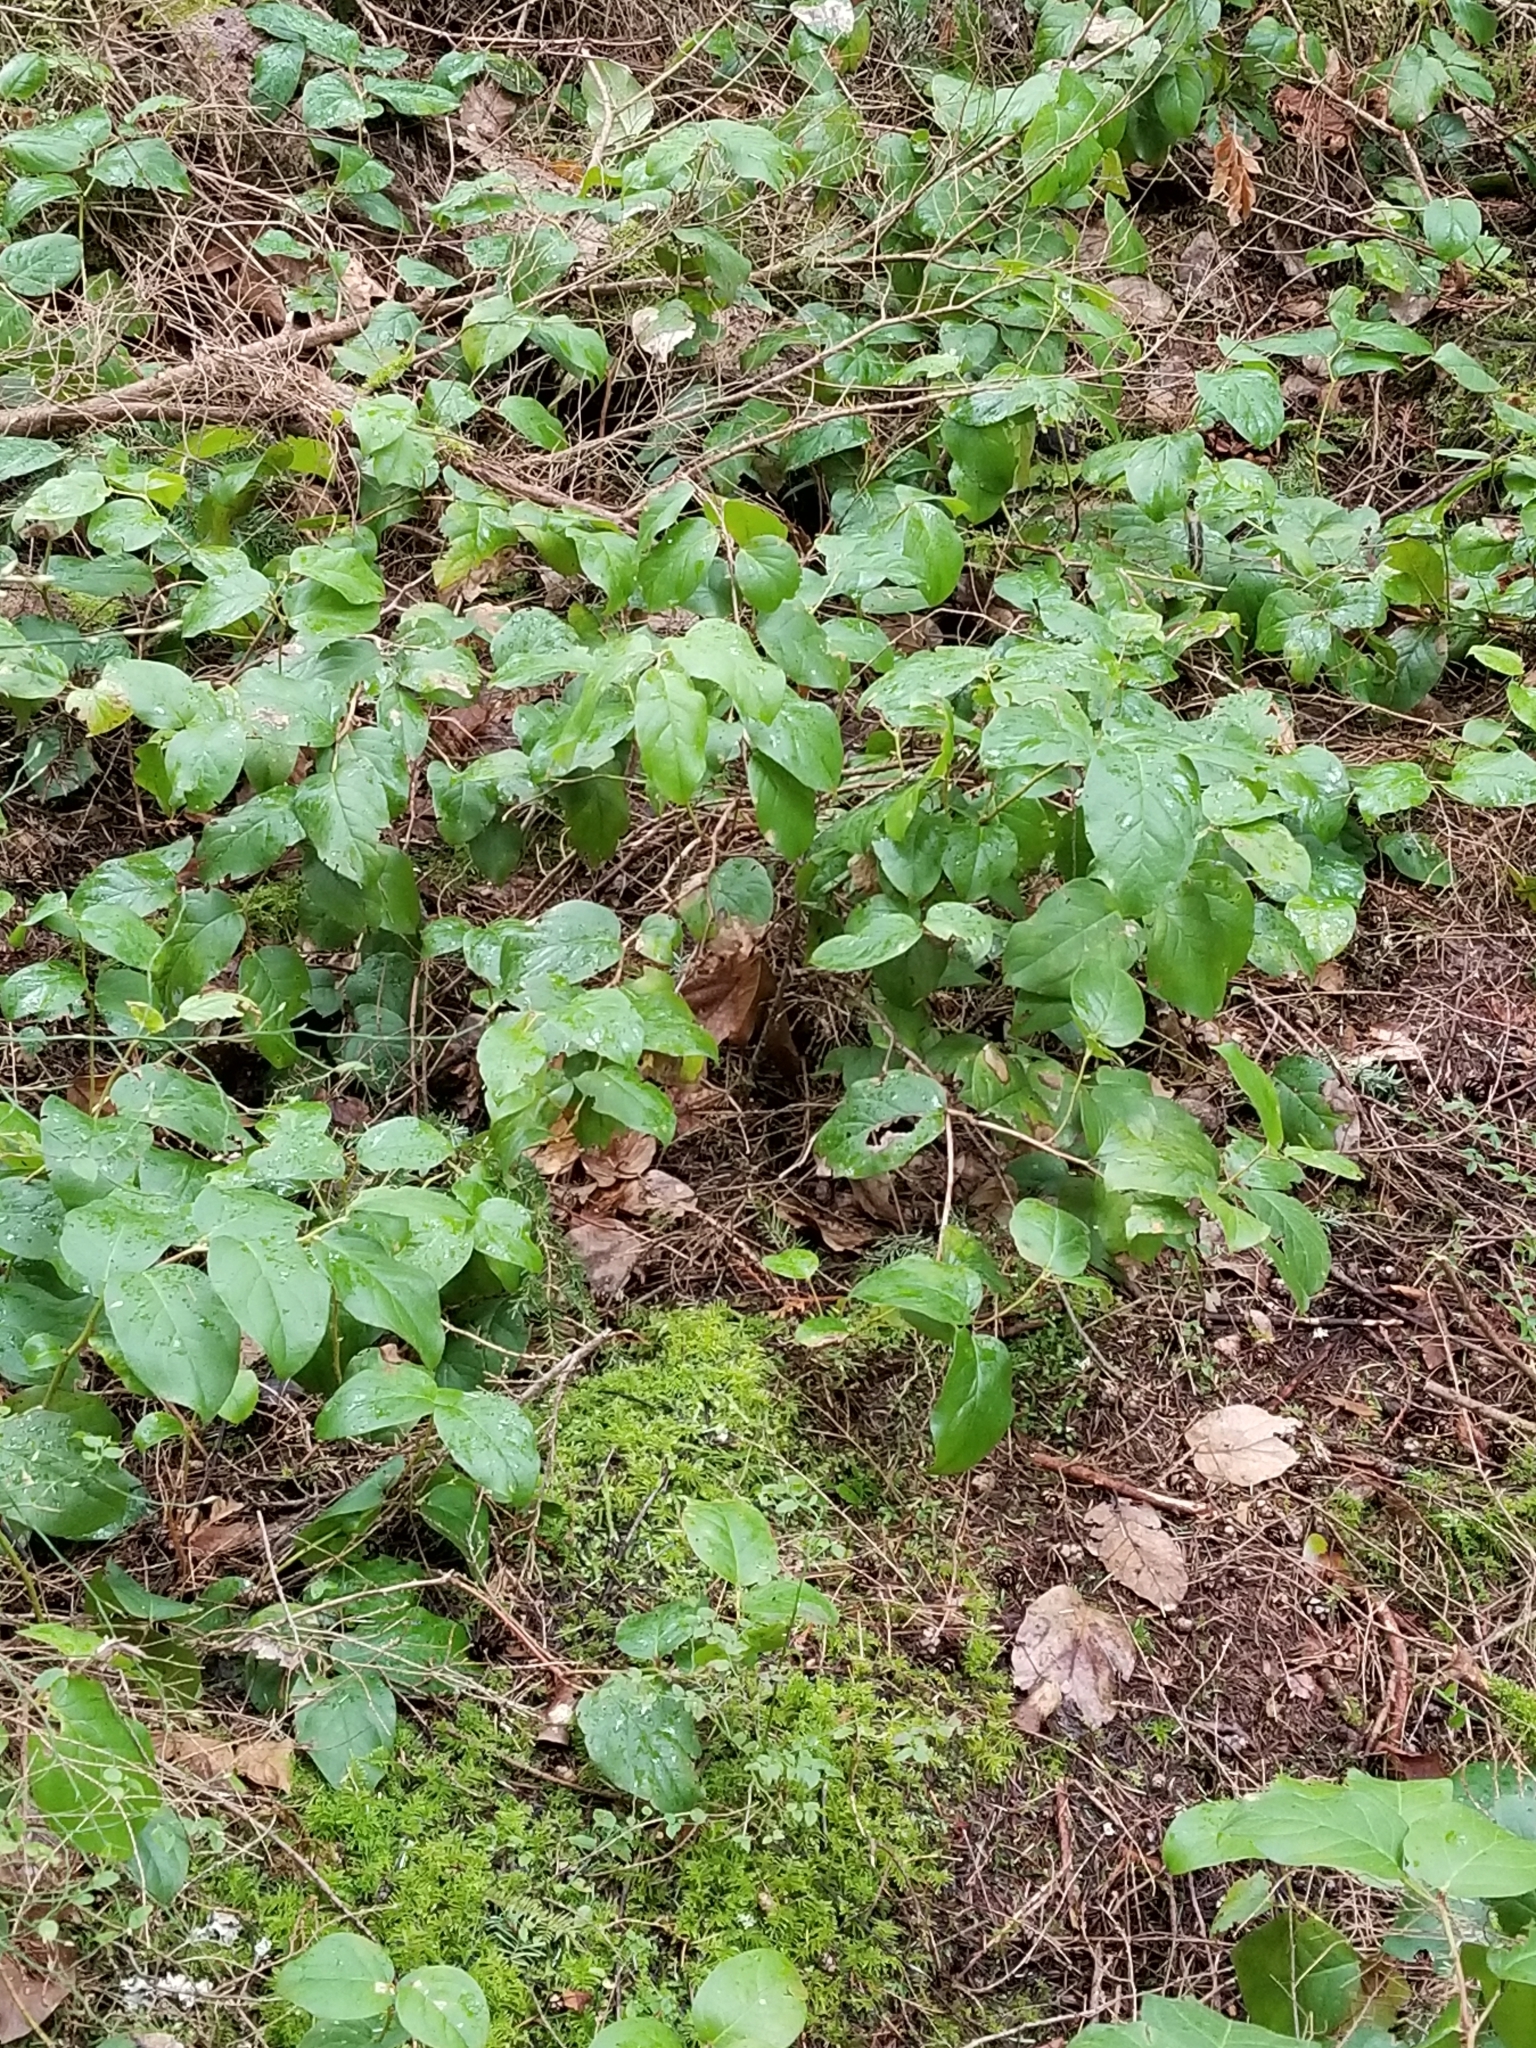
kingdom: Plantae
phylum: Tracheophyta
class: Magnoliopsida
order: Ericales
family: Ericaceae
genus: Gaultheria
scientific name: Gaultheria shallon
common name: Shallon
